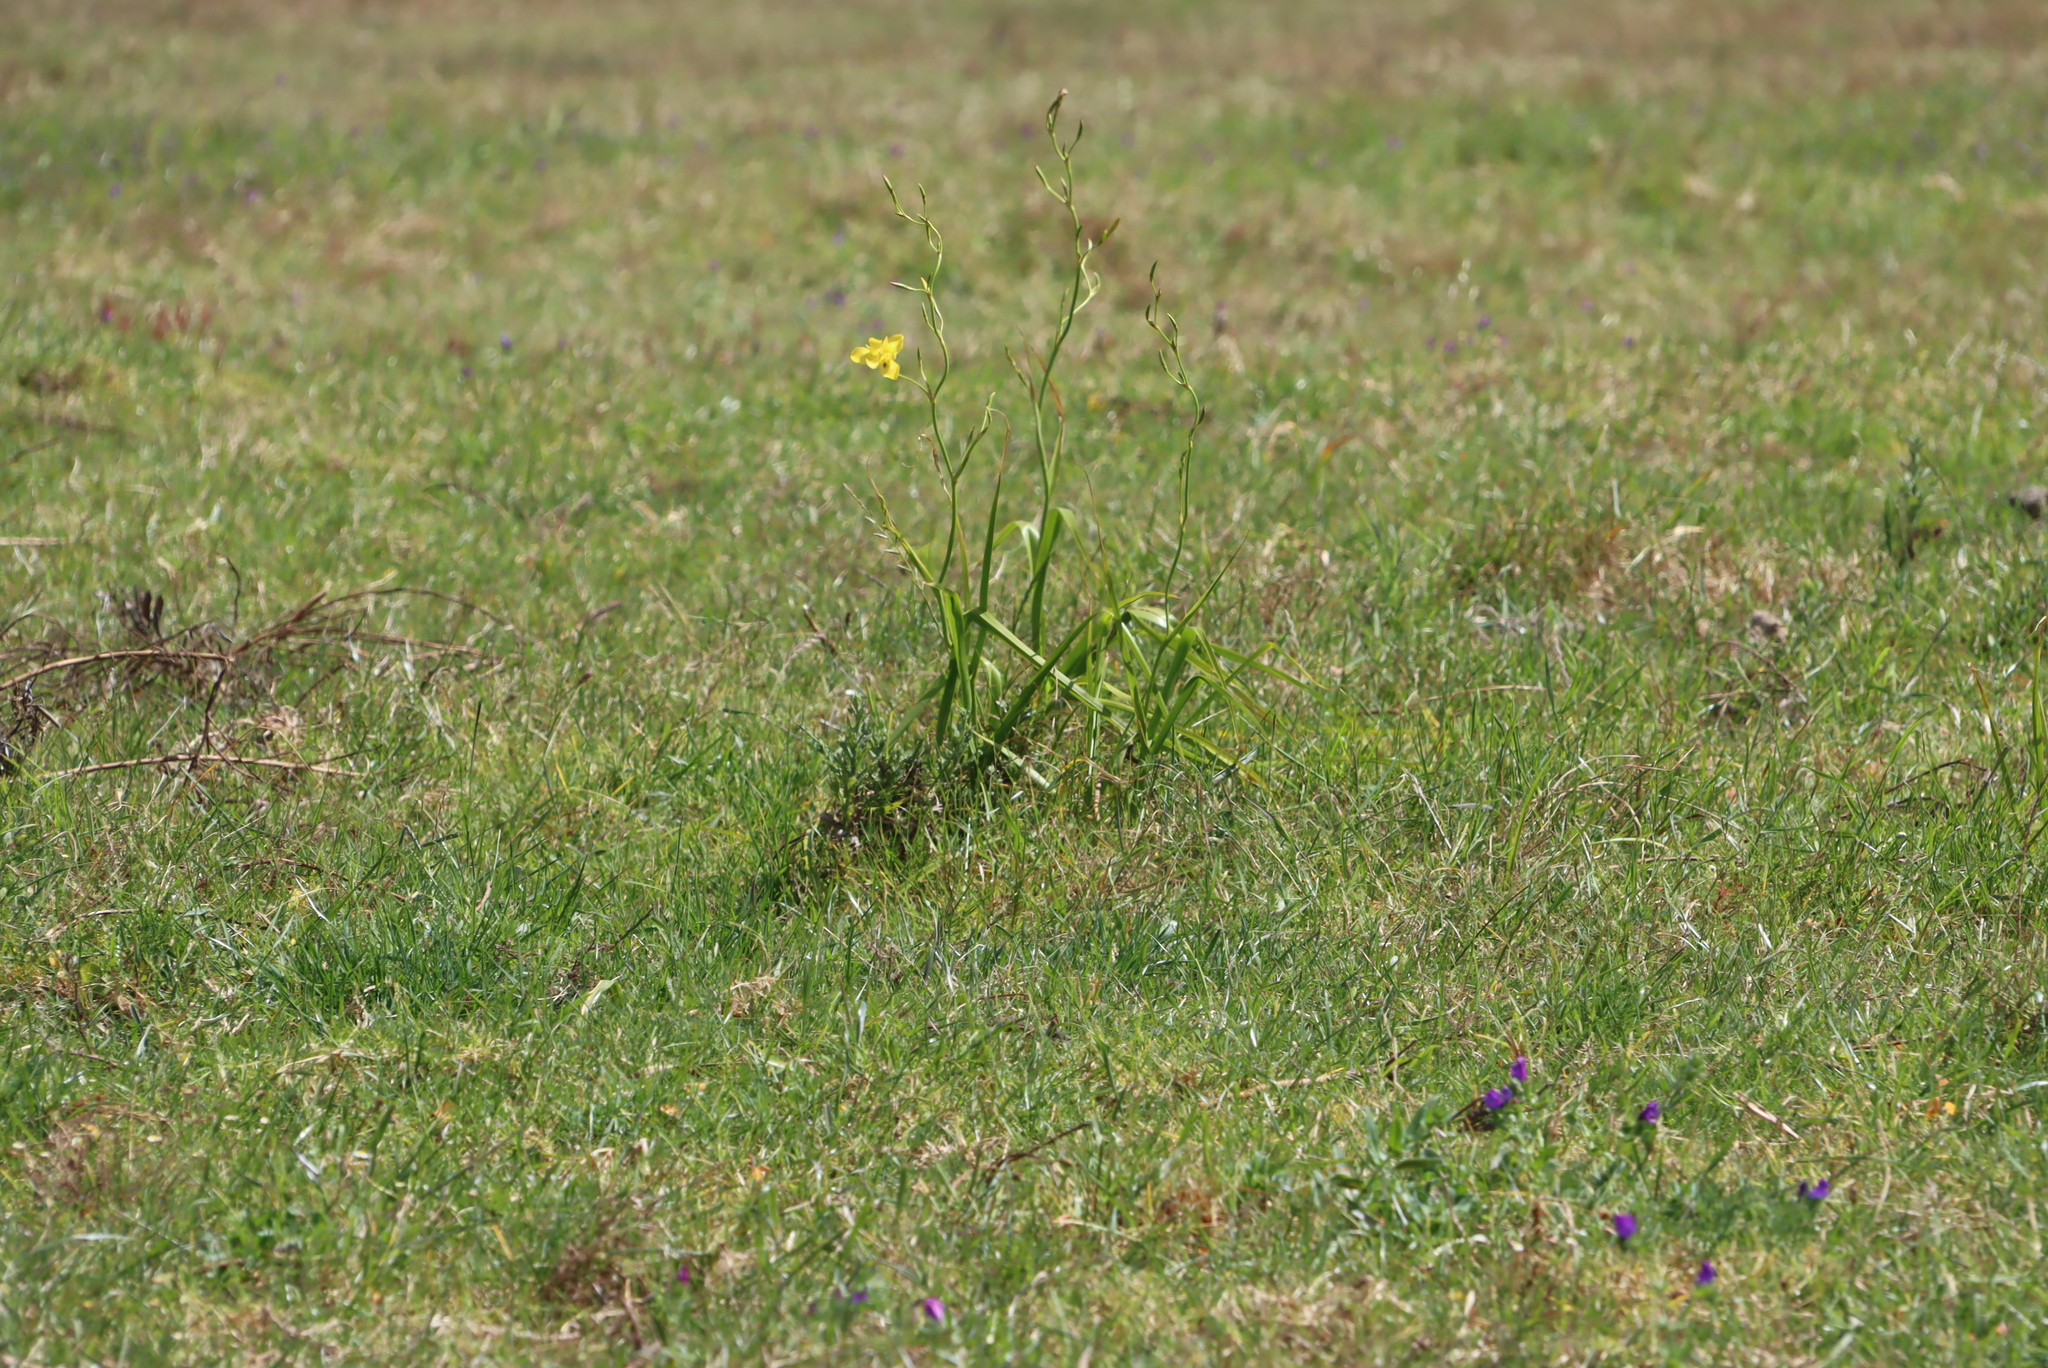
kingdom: Plantae
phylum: Tracheophyta
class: Liliopsida
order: Asparagales
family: Iridaceae
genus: Moraea
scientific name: Moraea ramosissima
